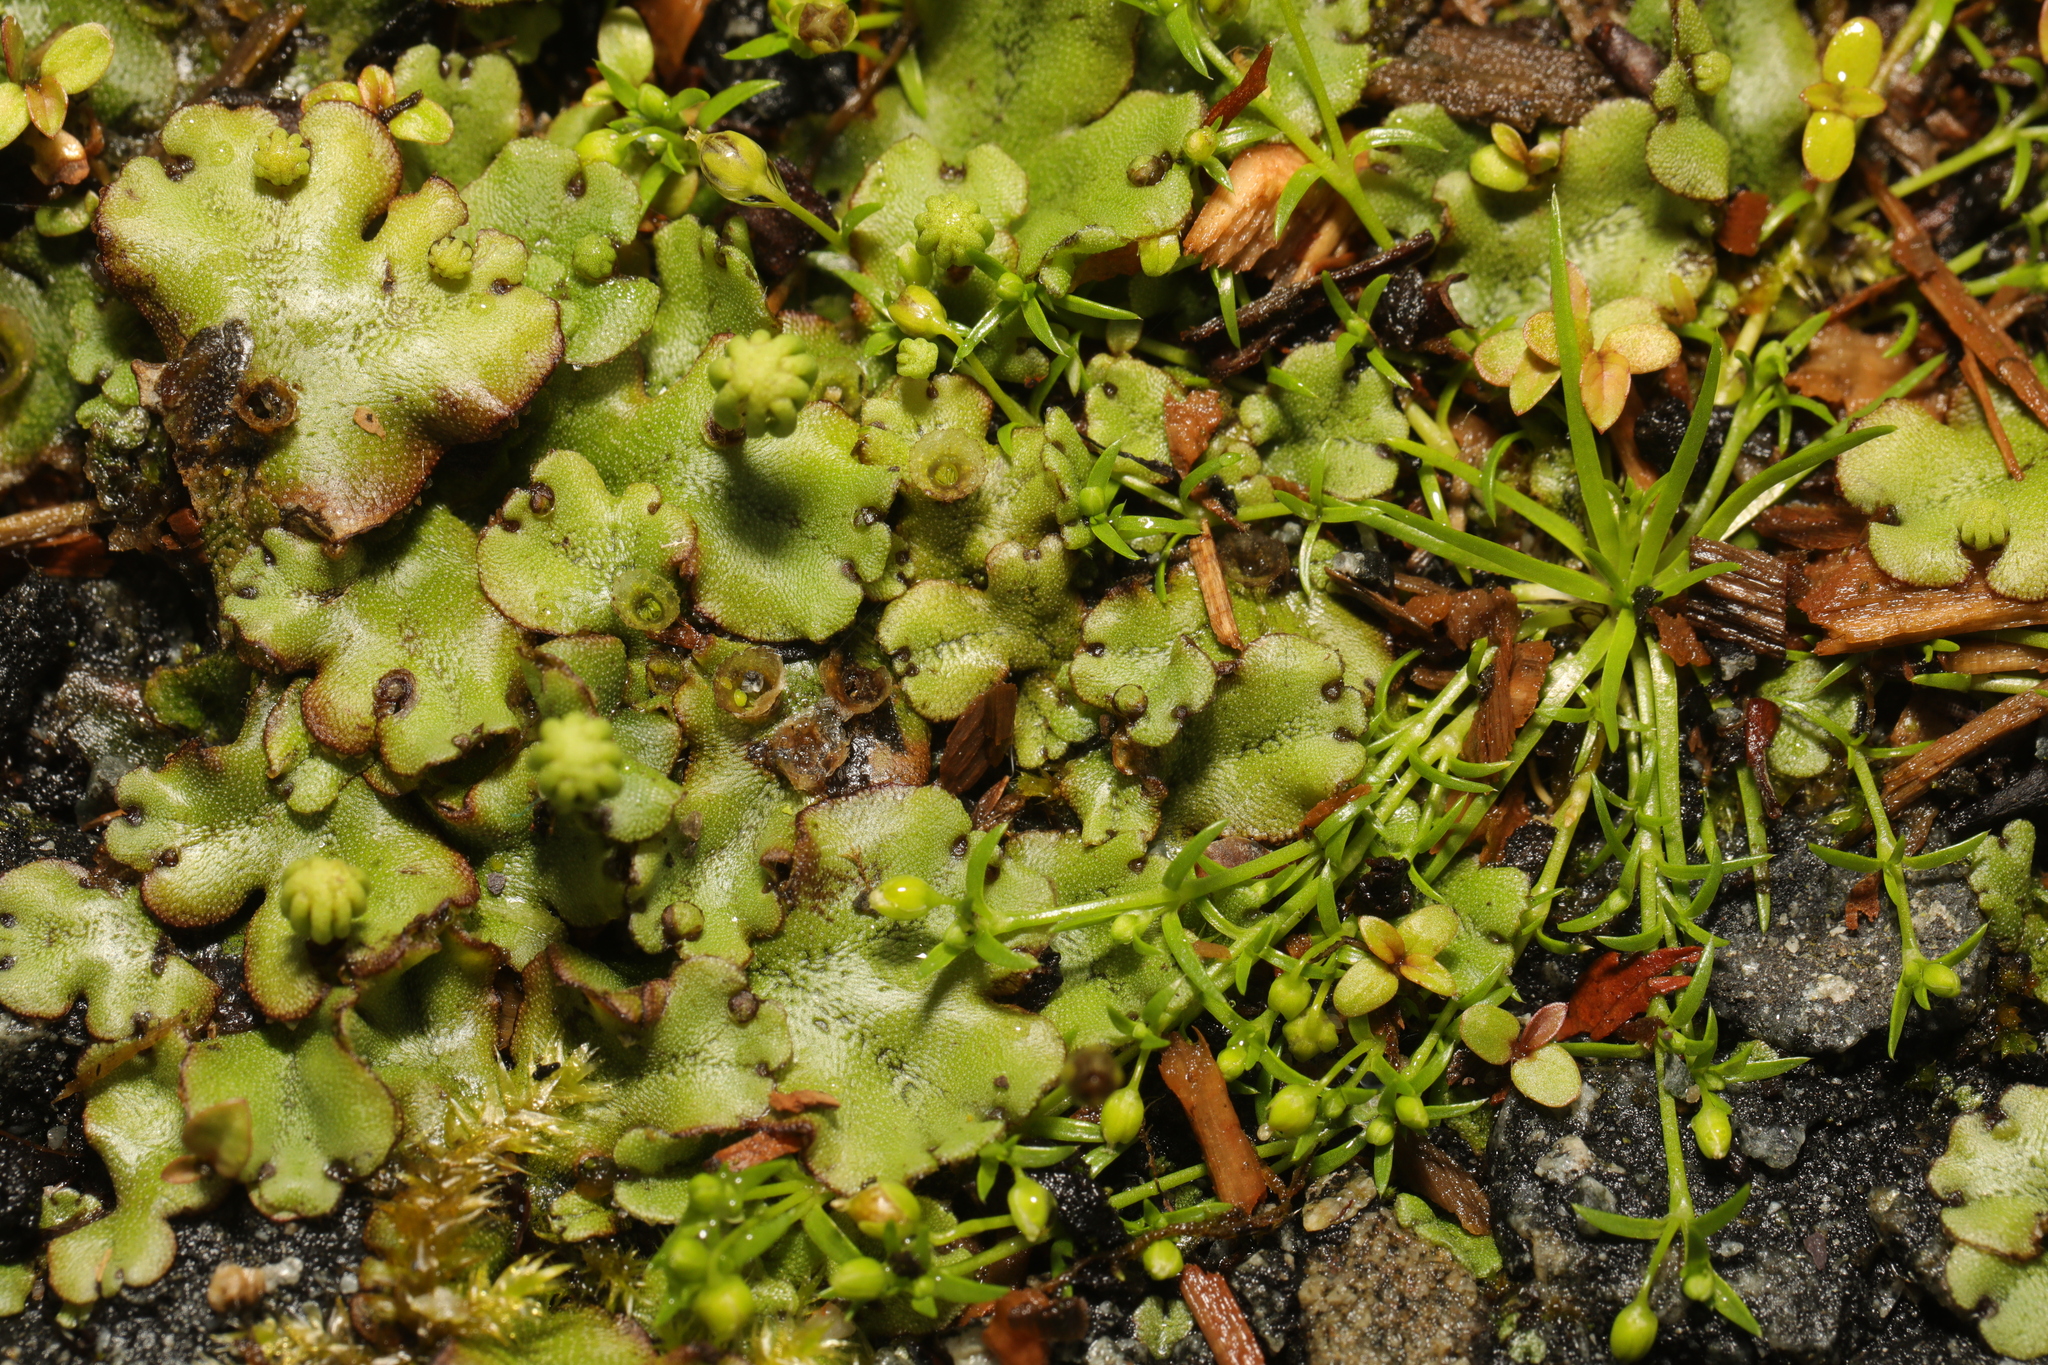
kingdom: Plantae
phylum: Marchantiophyta
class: Marchantiopsida
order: Marchantiales
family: Marchantiaceae
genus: Marchantia
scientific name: Marchantia polymorpha
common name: Common liverwort
